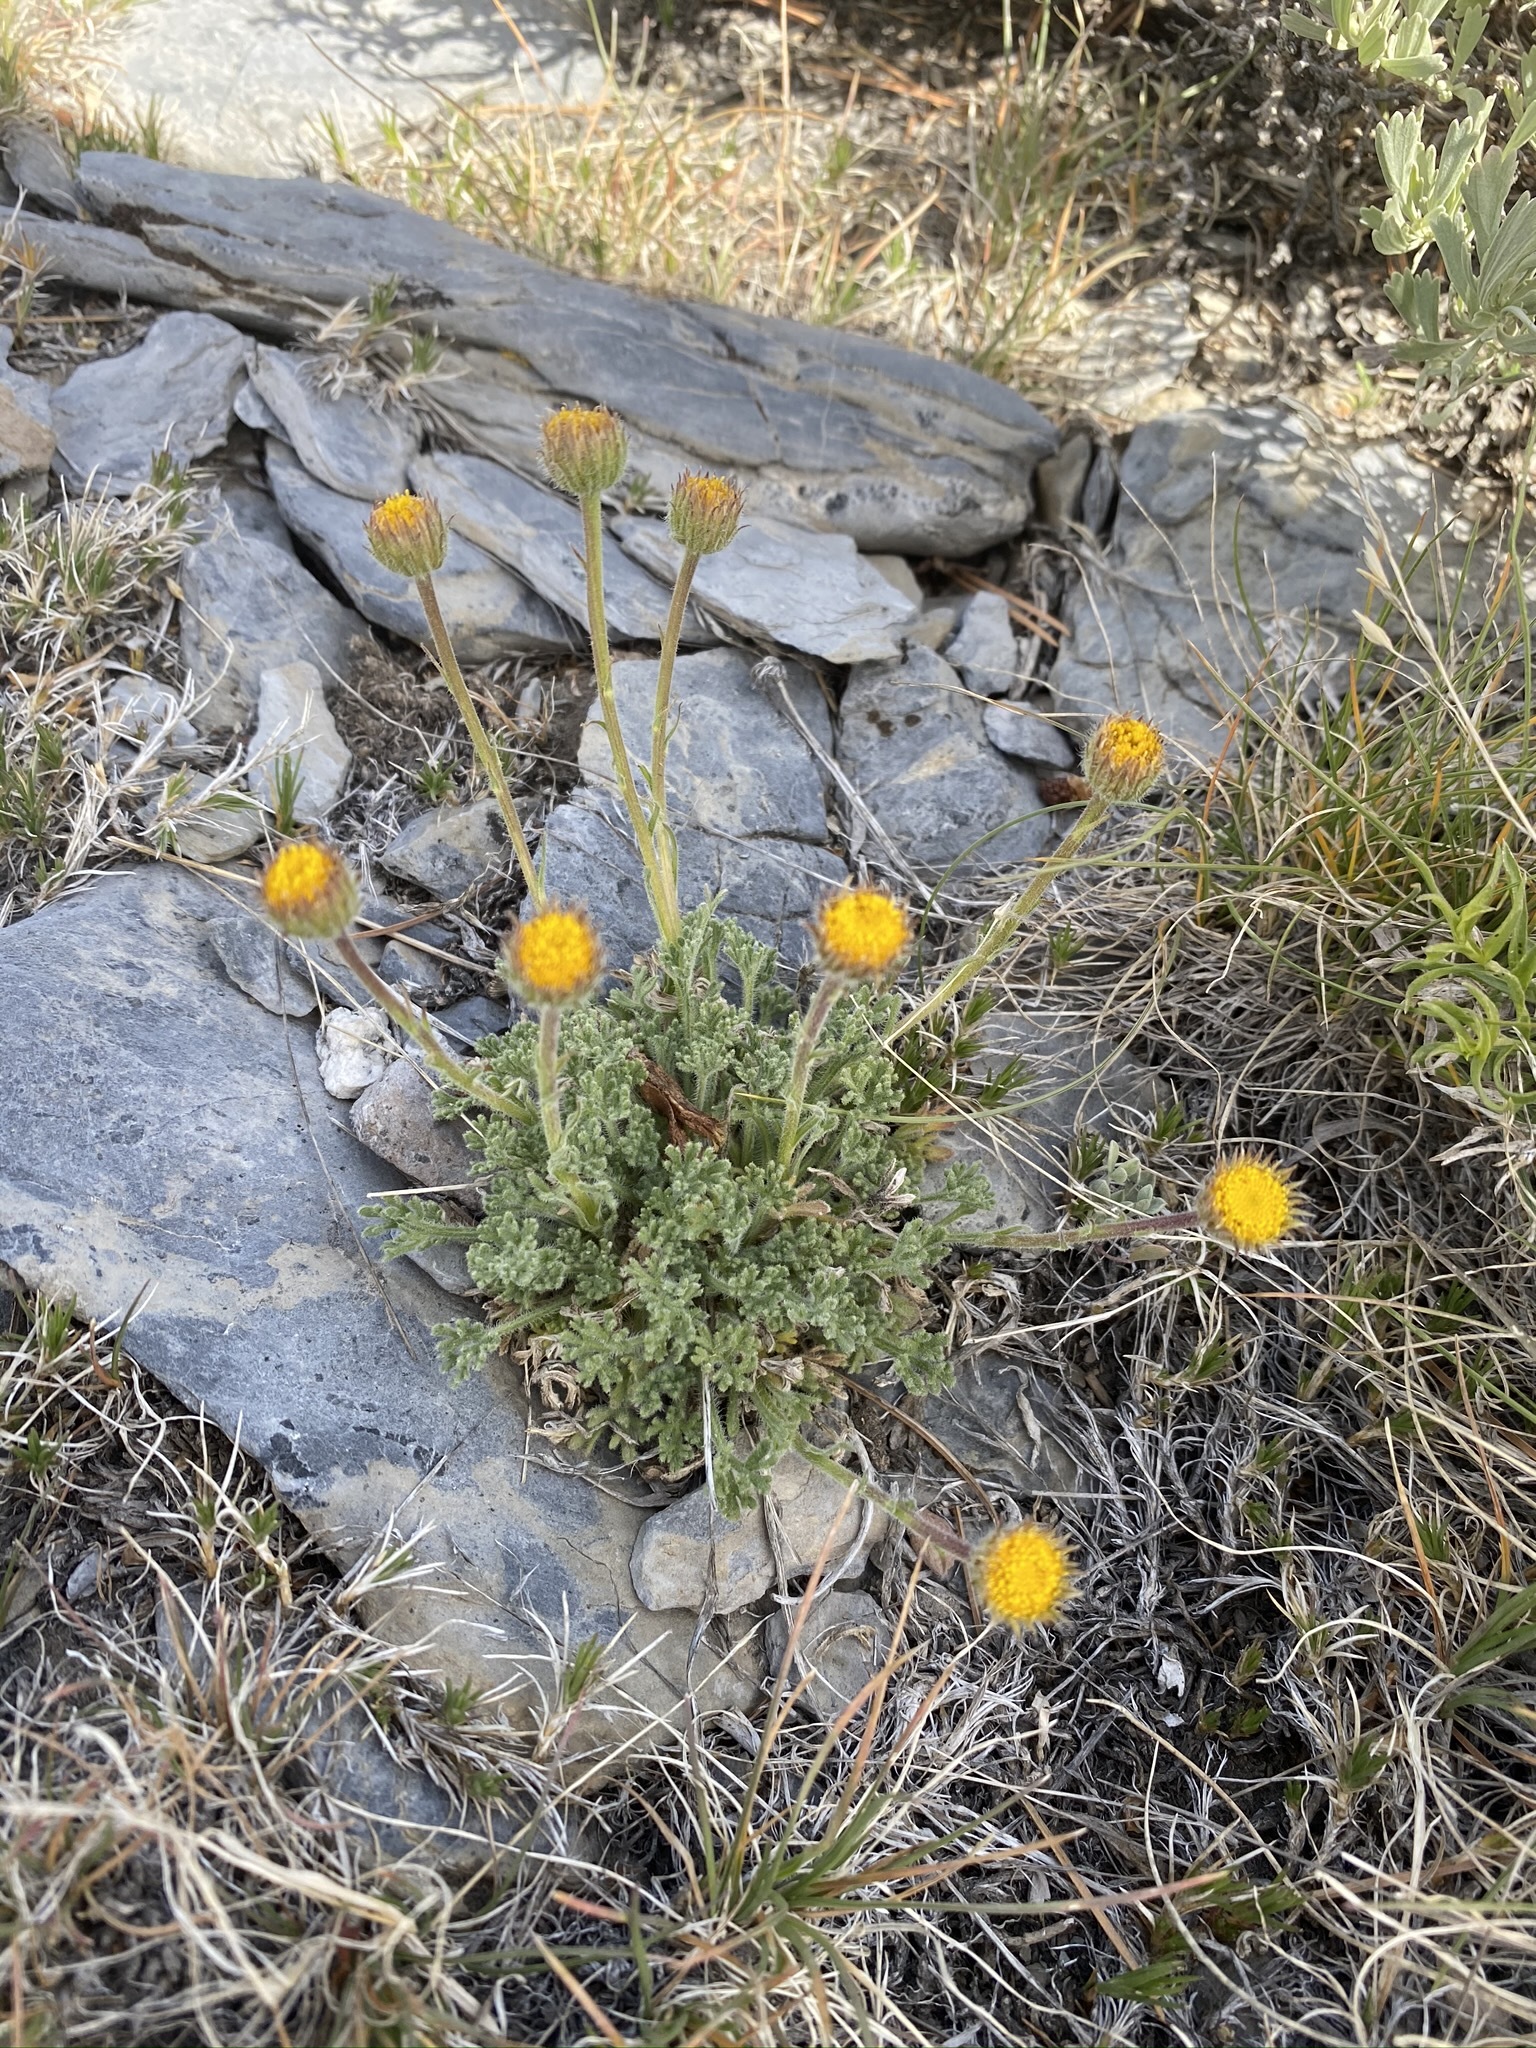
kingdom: Plantae
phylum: Tracheophyta
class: Magnoliopsida
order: Asterales
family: Asteraceae
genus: Erigeron
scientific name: Erigeron compositus
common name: Dwarf mountain fleabane
